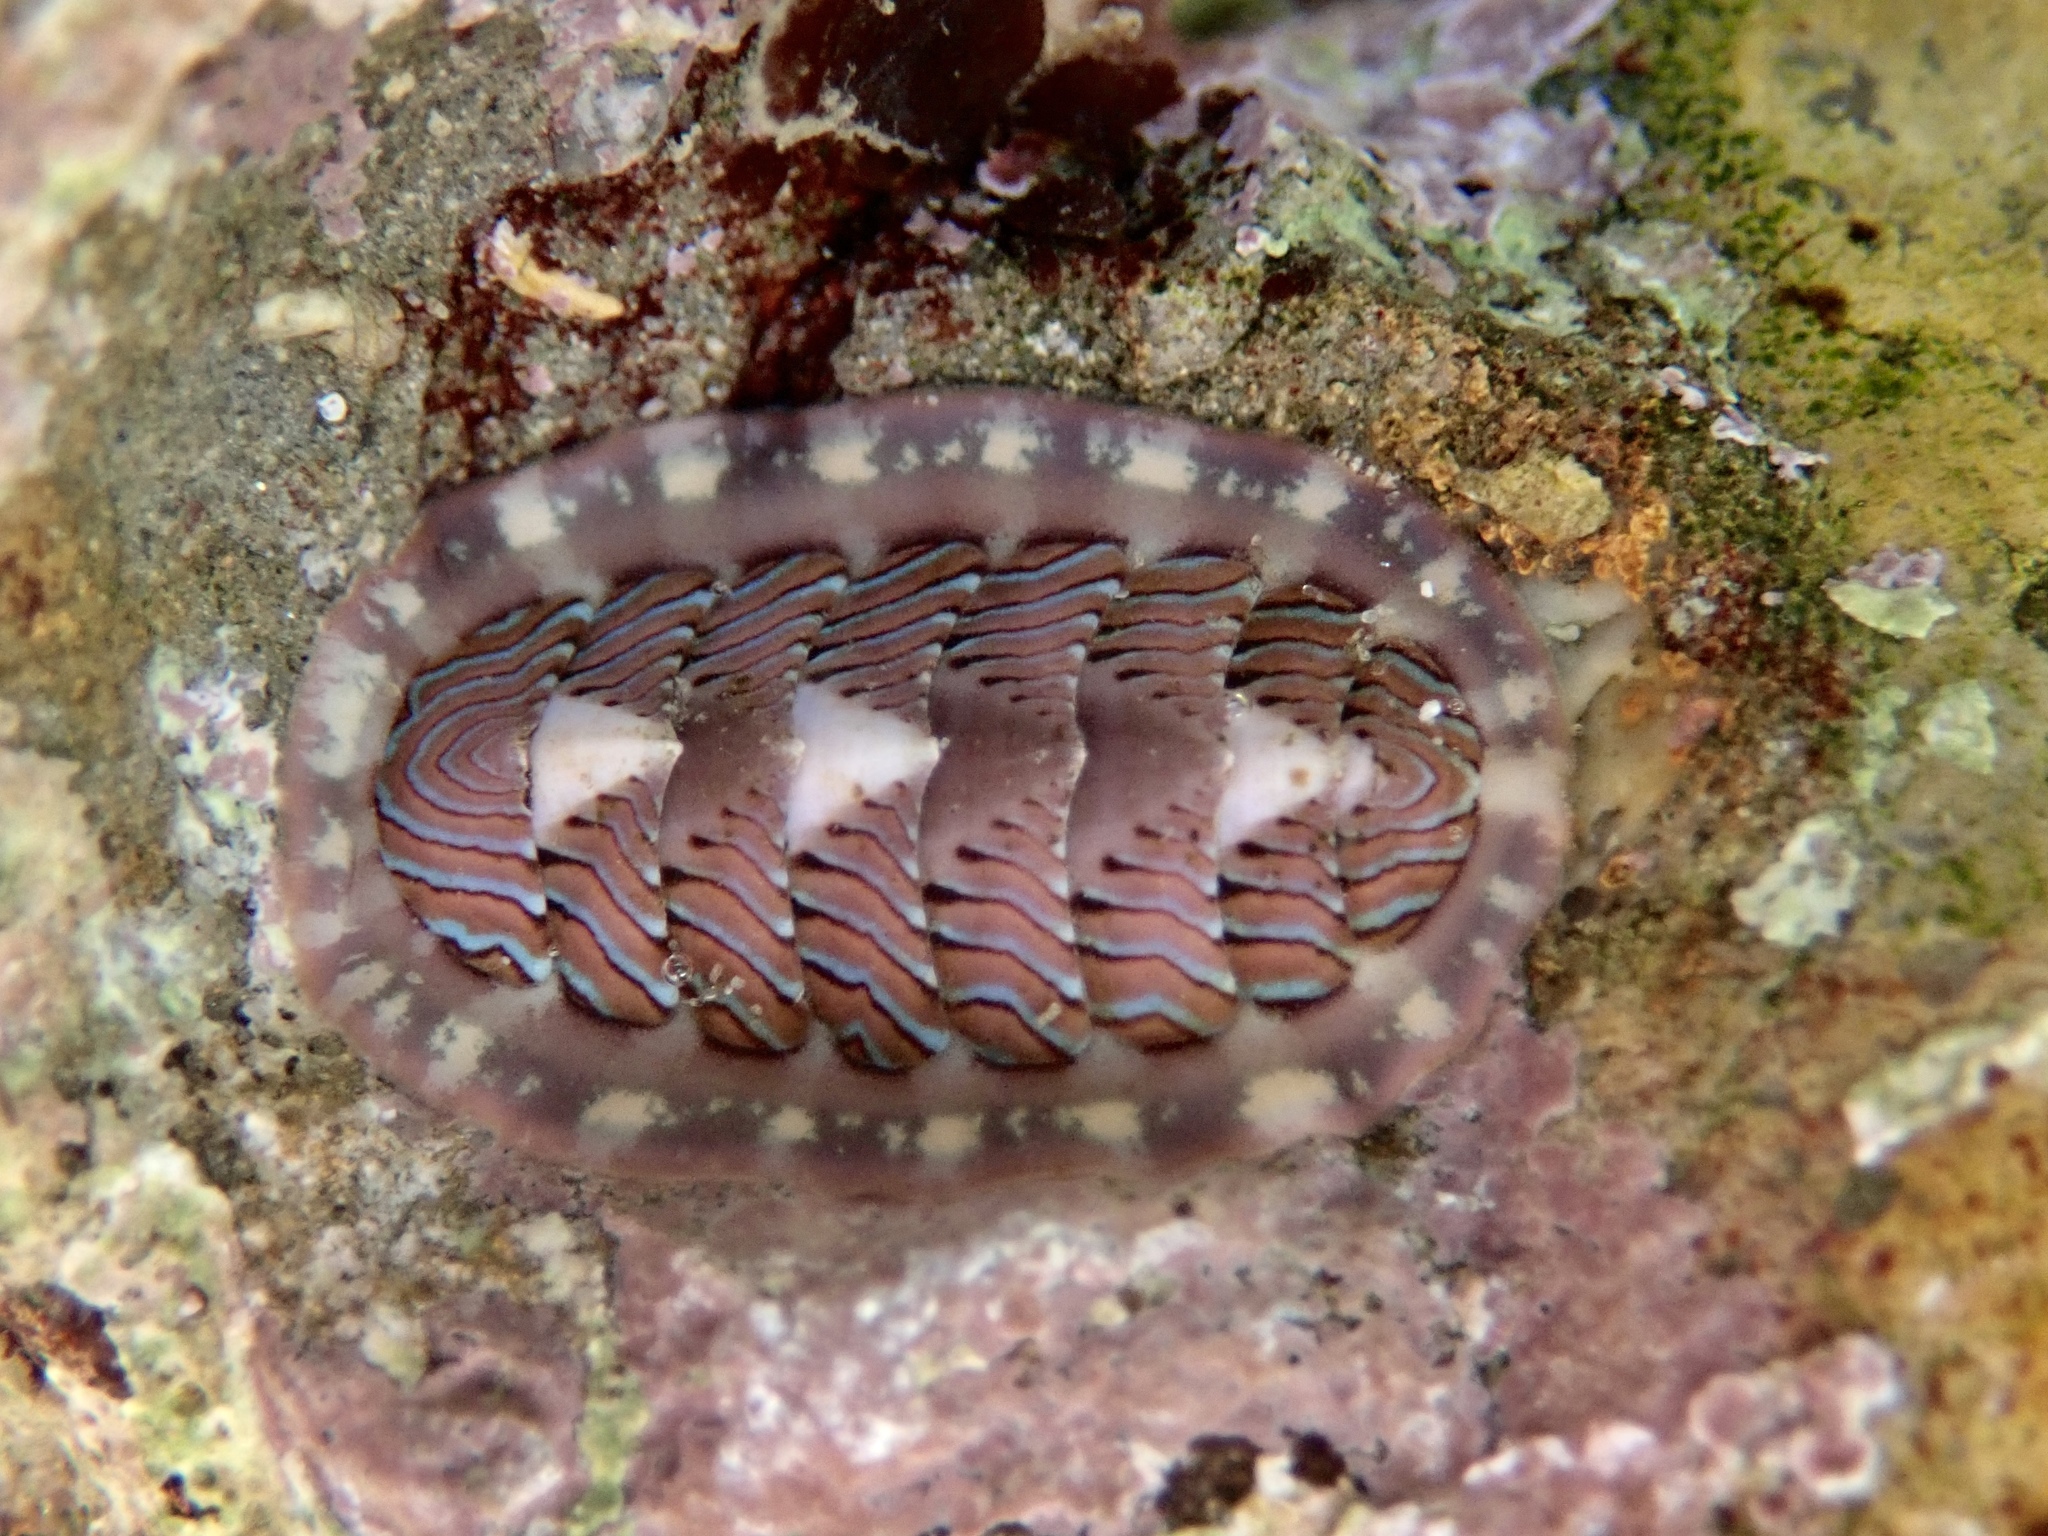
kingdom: Animalia
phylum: Mollusca
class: Polyplacophora
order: Chitonida
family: Tonicellidae
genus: Tonicella
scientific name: Tonicella lineata
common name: Lined chiton
